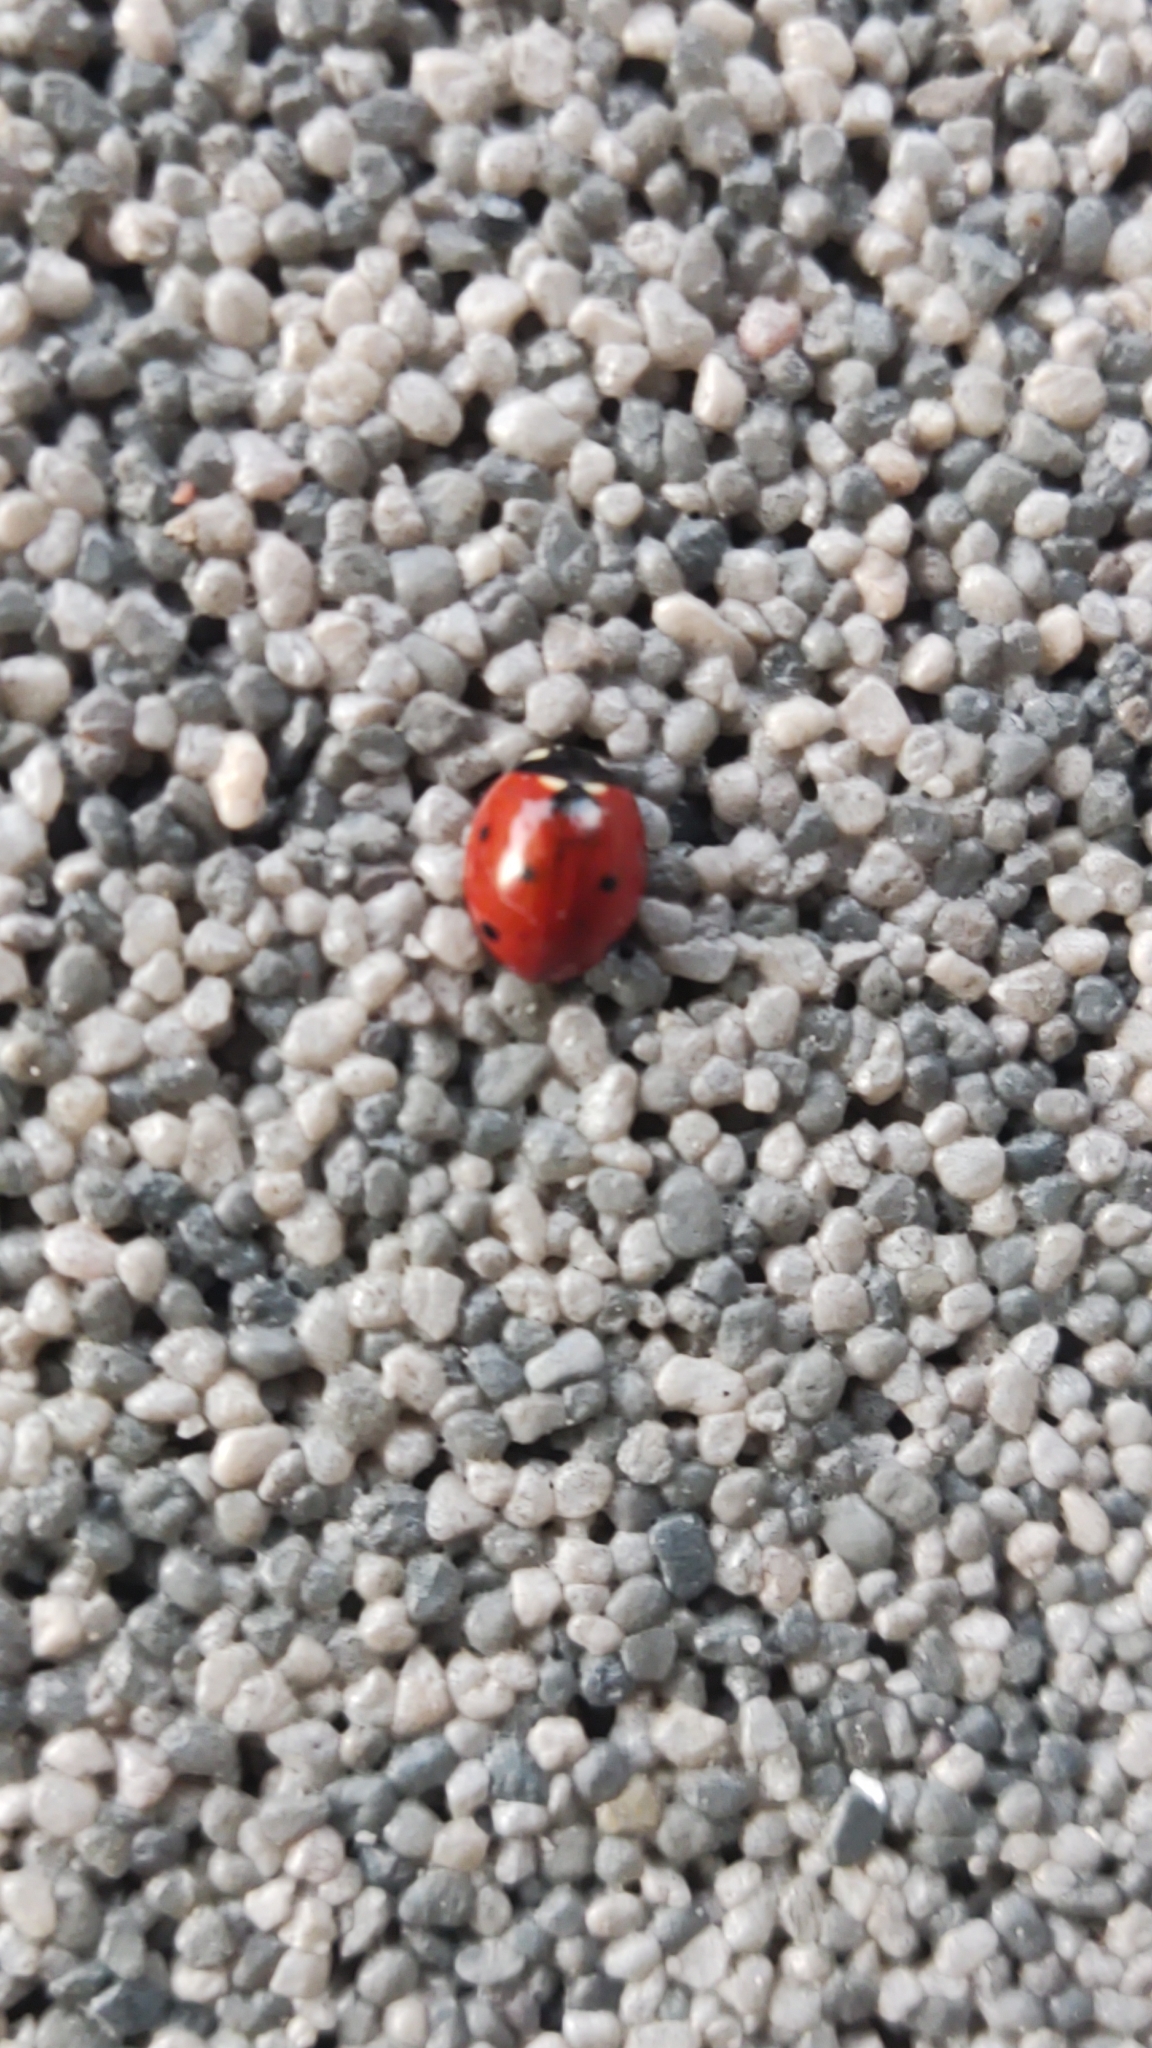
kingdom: Animalia
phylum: Arthropoda
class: Insecta
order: Coleoptera
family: Coccinellidae
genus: Coccinella
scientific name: Coccinella septempunctata
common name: Sevenspotted lady beetle
